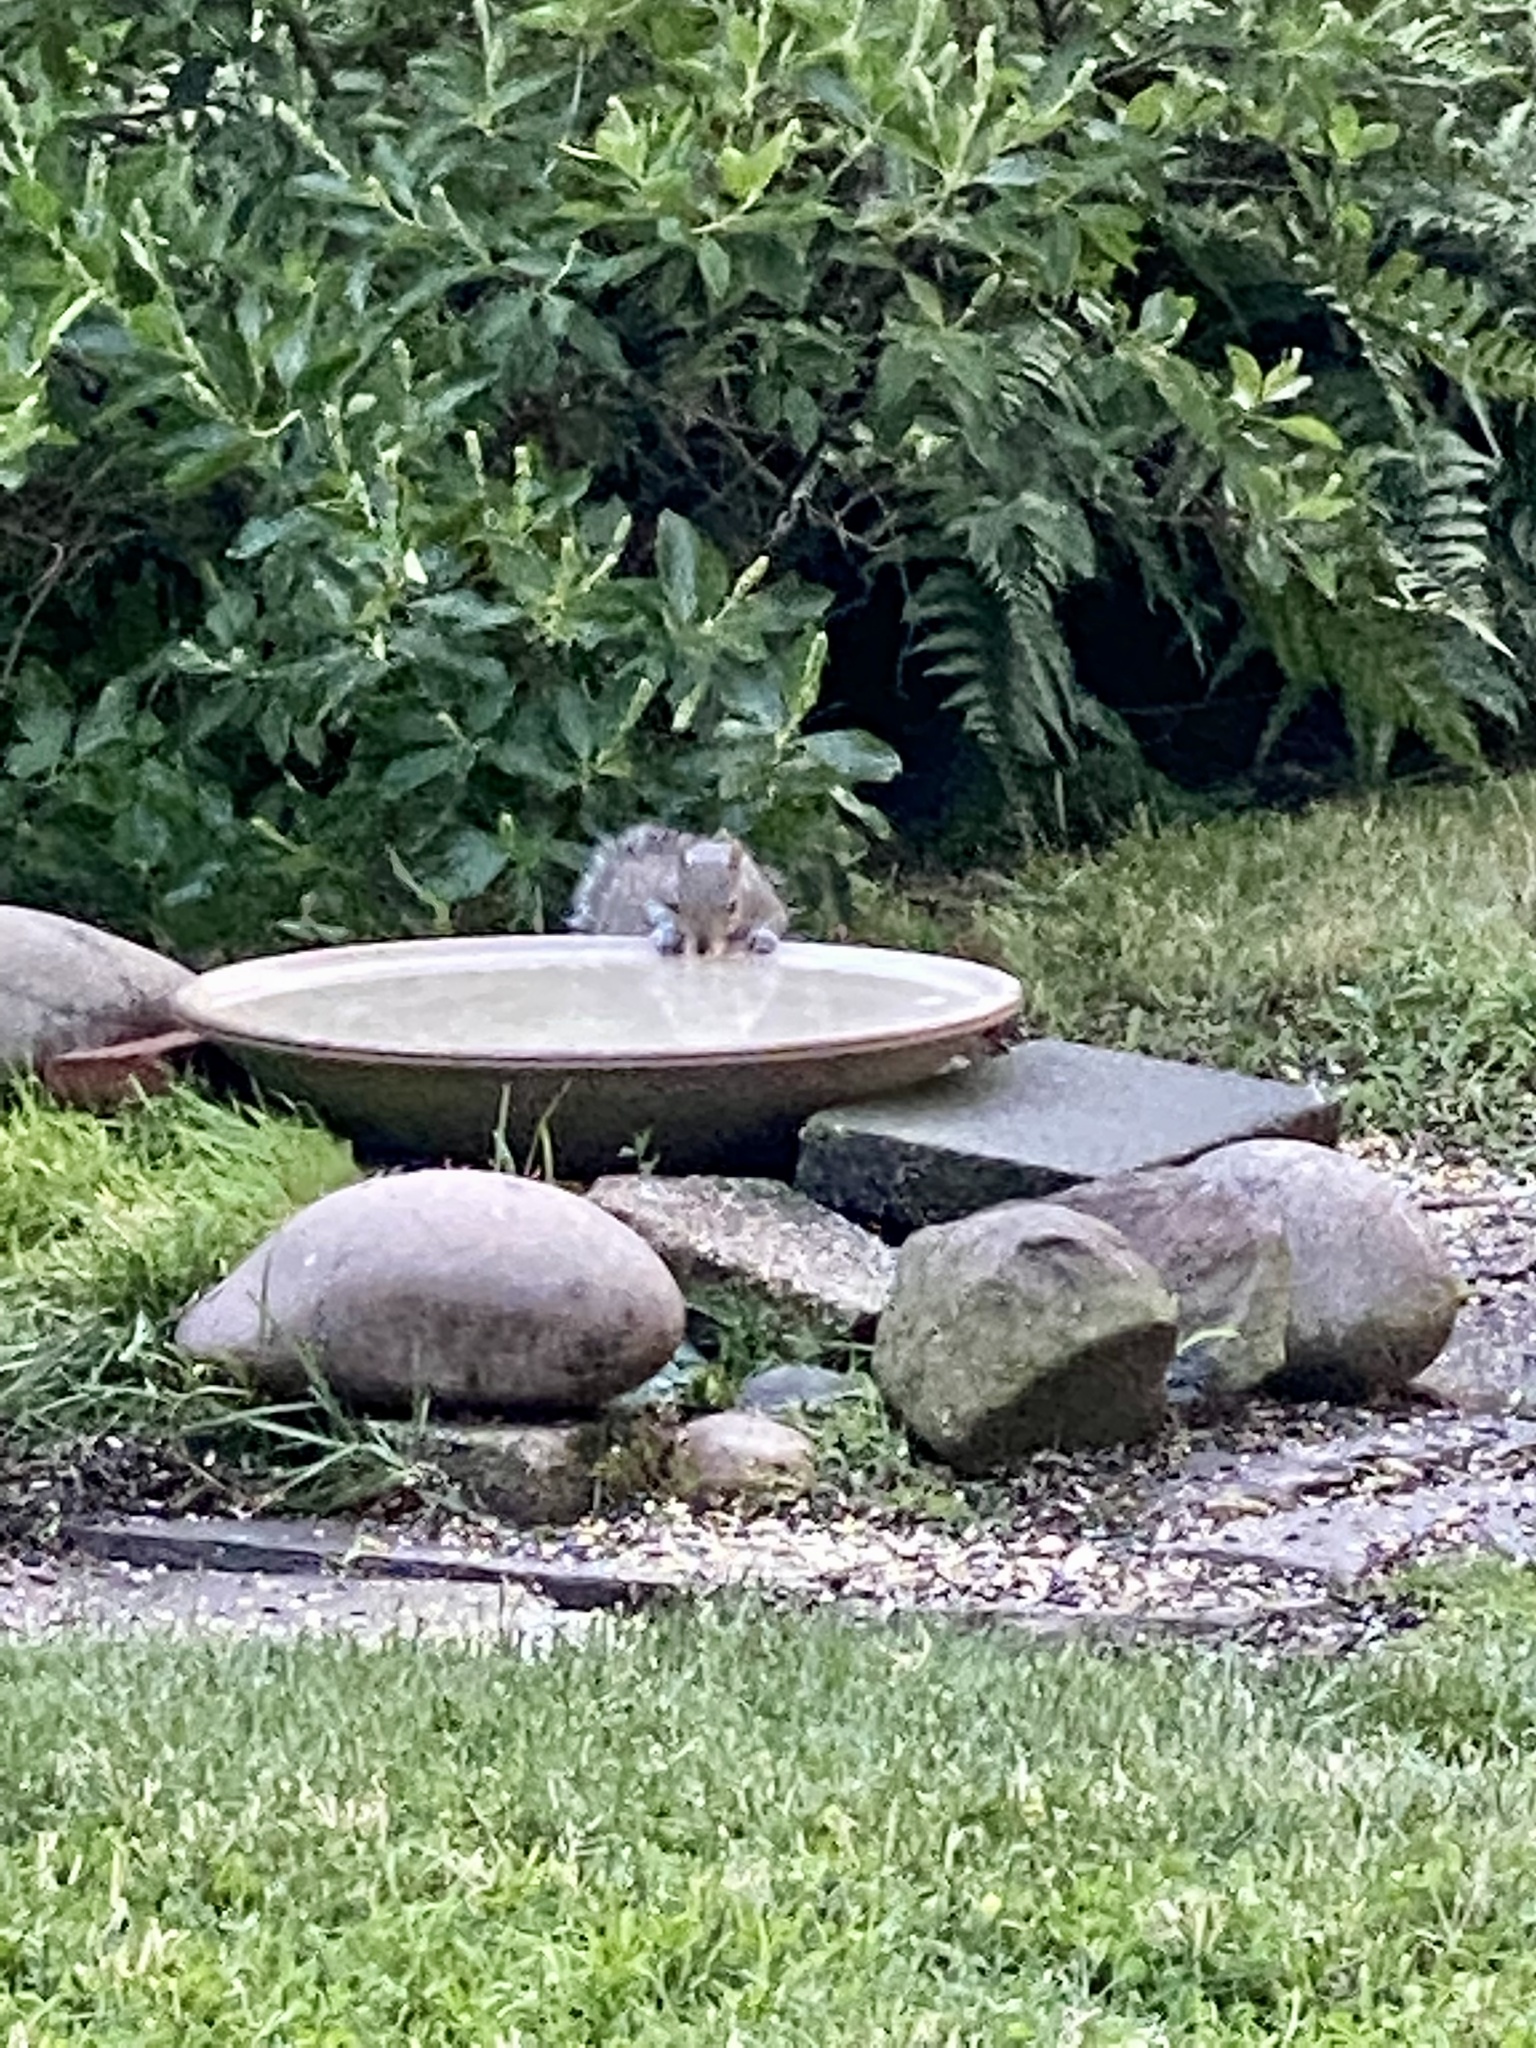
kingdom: Animalia
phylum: Chordata
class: Mammalia
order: Rodentia
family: Sciuridae
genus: Sciurus
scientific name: Sciurus carolinensis
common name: Eastern gray squirrel
